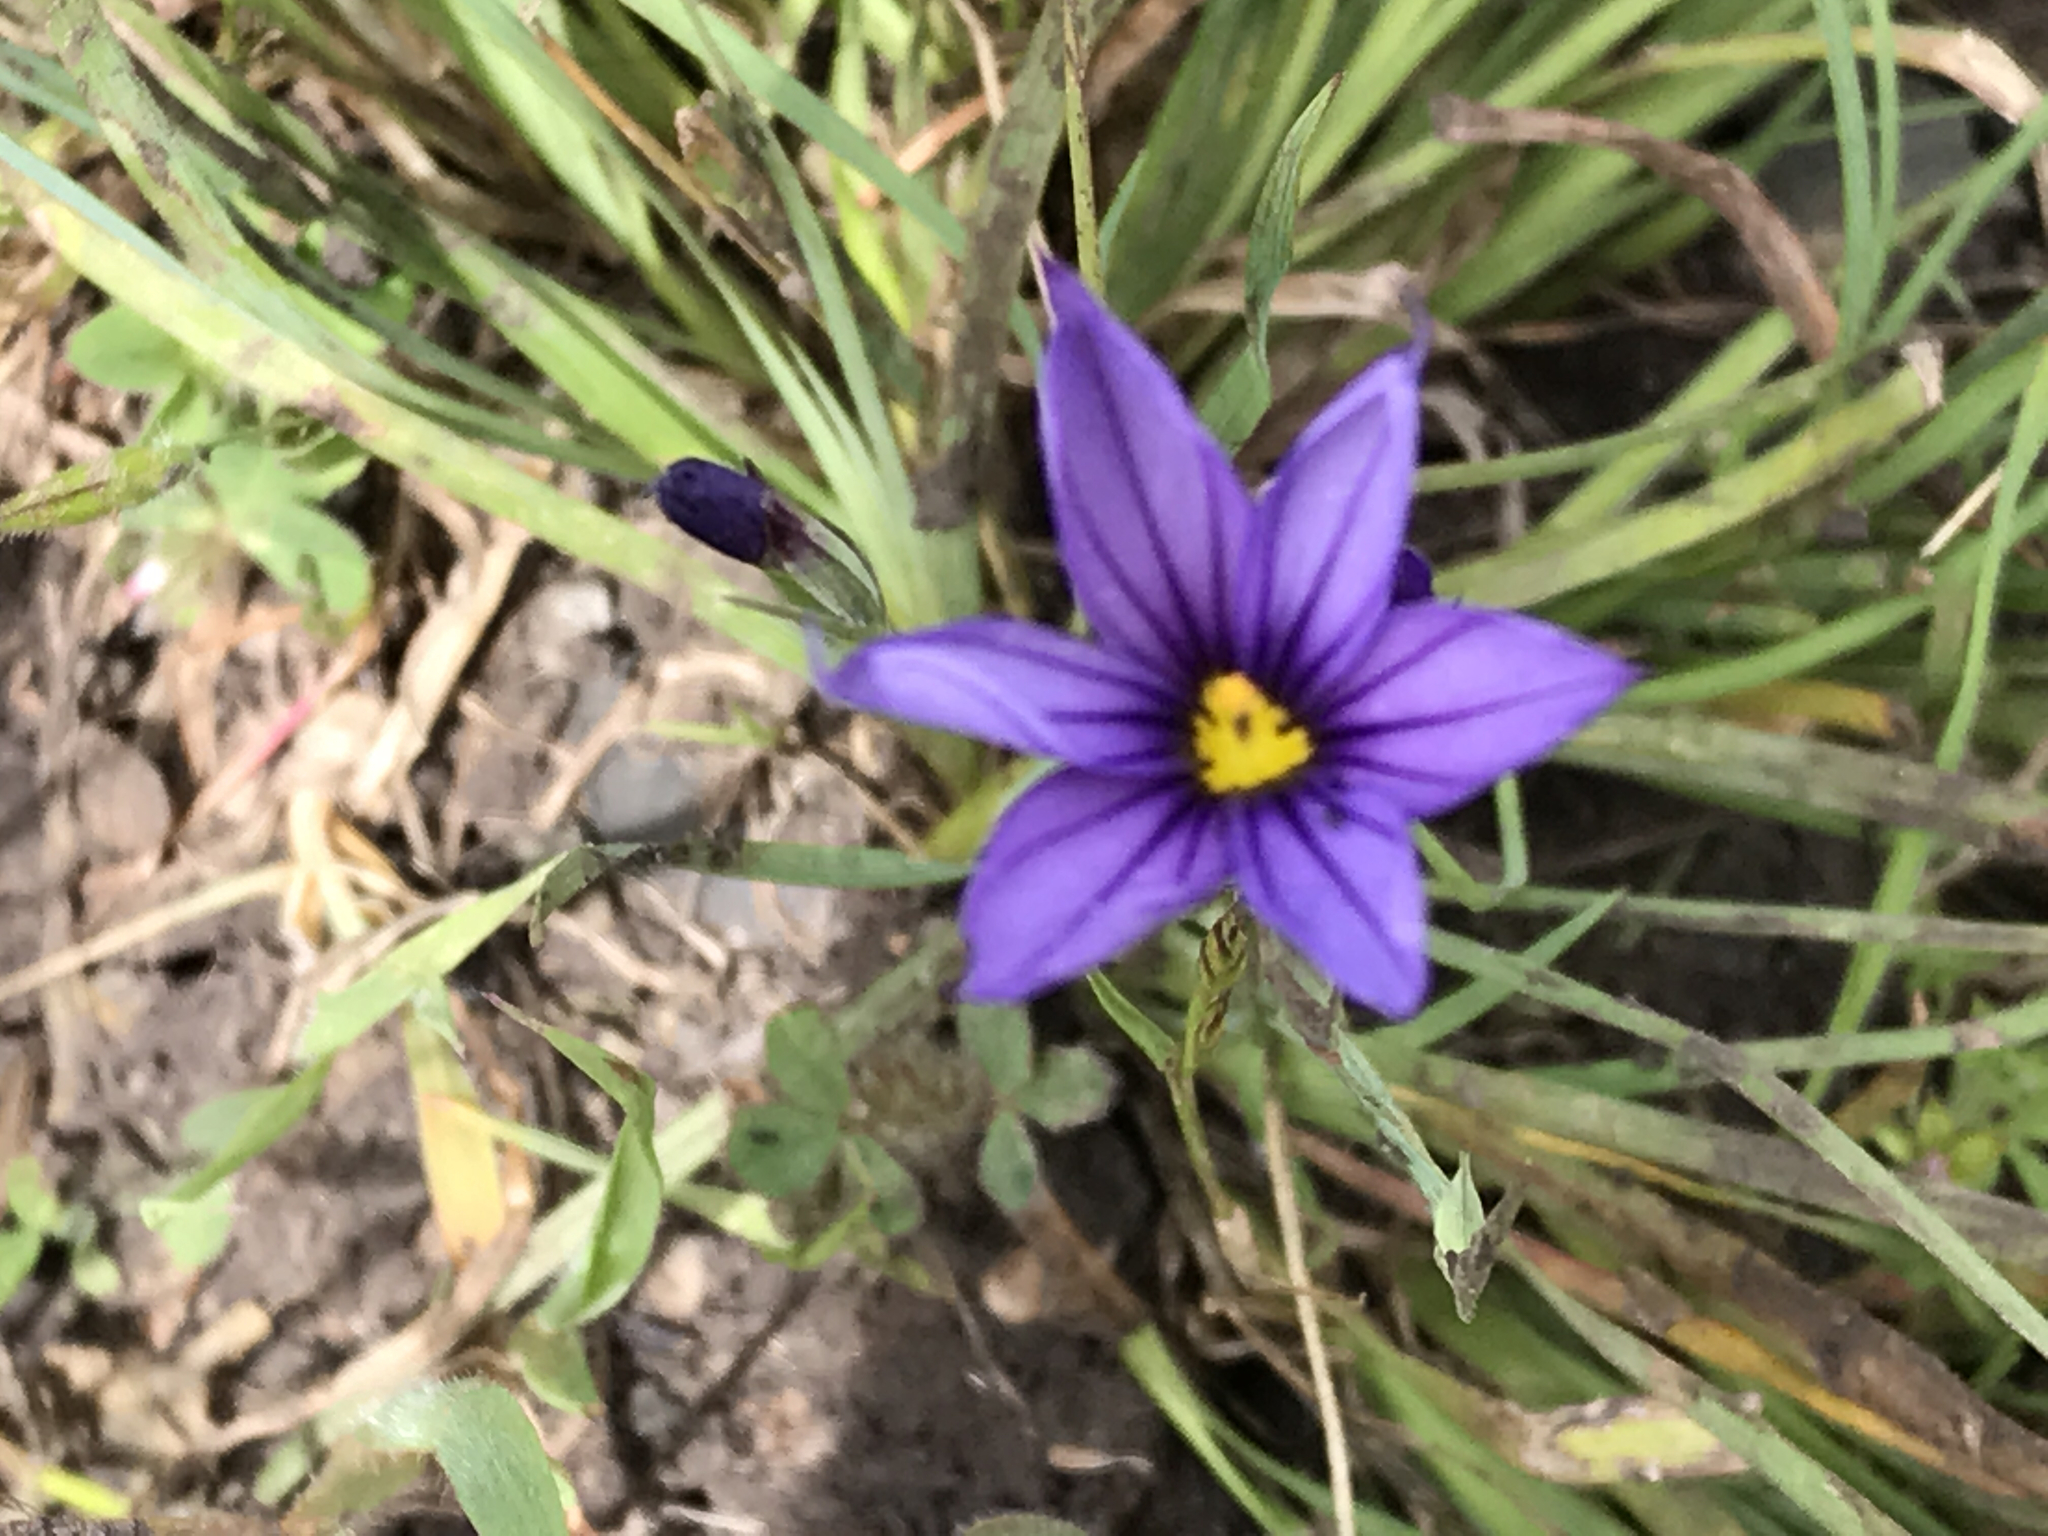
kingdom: Plantae
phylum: Tracheophyta
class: Liliopsida
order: Asparagales
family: Iridaceae
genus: Sisyrinchium
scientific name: Sisyrinchium bellum
